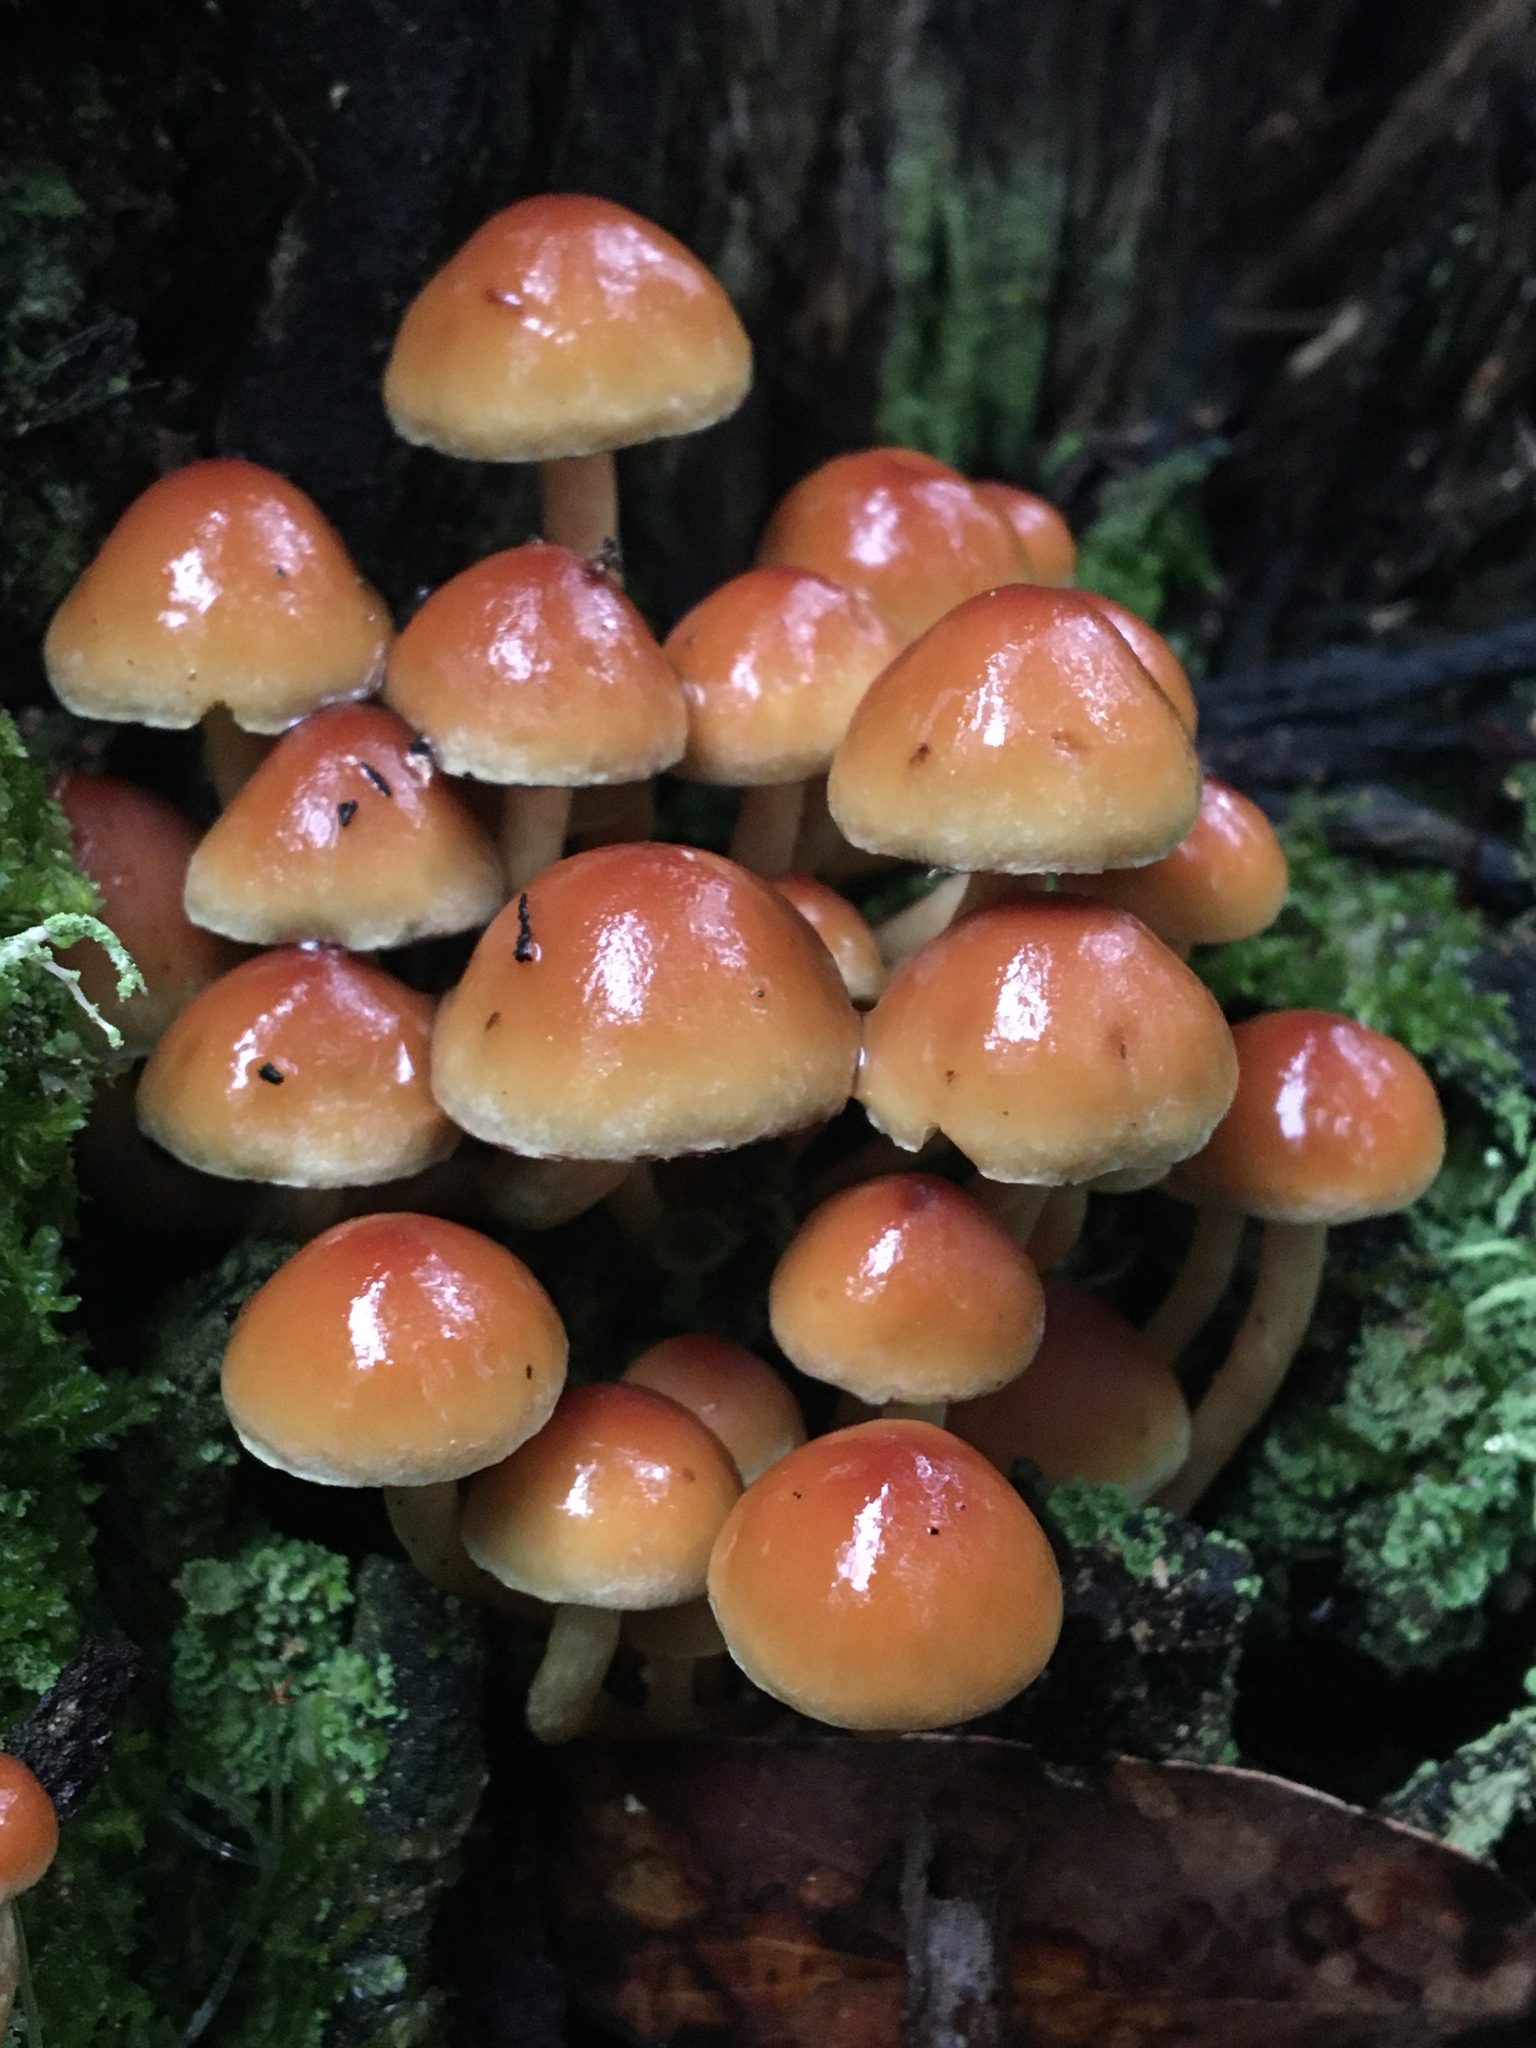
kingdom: Fungi
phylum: Basidiomycota
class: Agaricomycetes
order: Agaricales
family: Strophariaceae
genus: Hypholoma
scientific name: Hypholoma fasciculare
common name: Sulphur tuft
